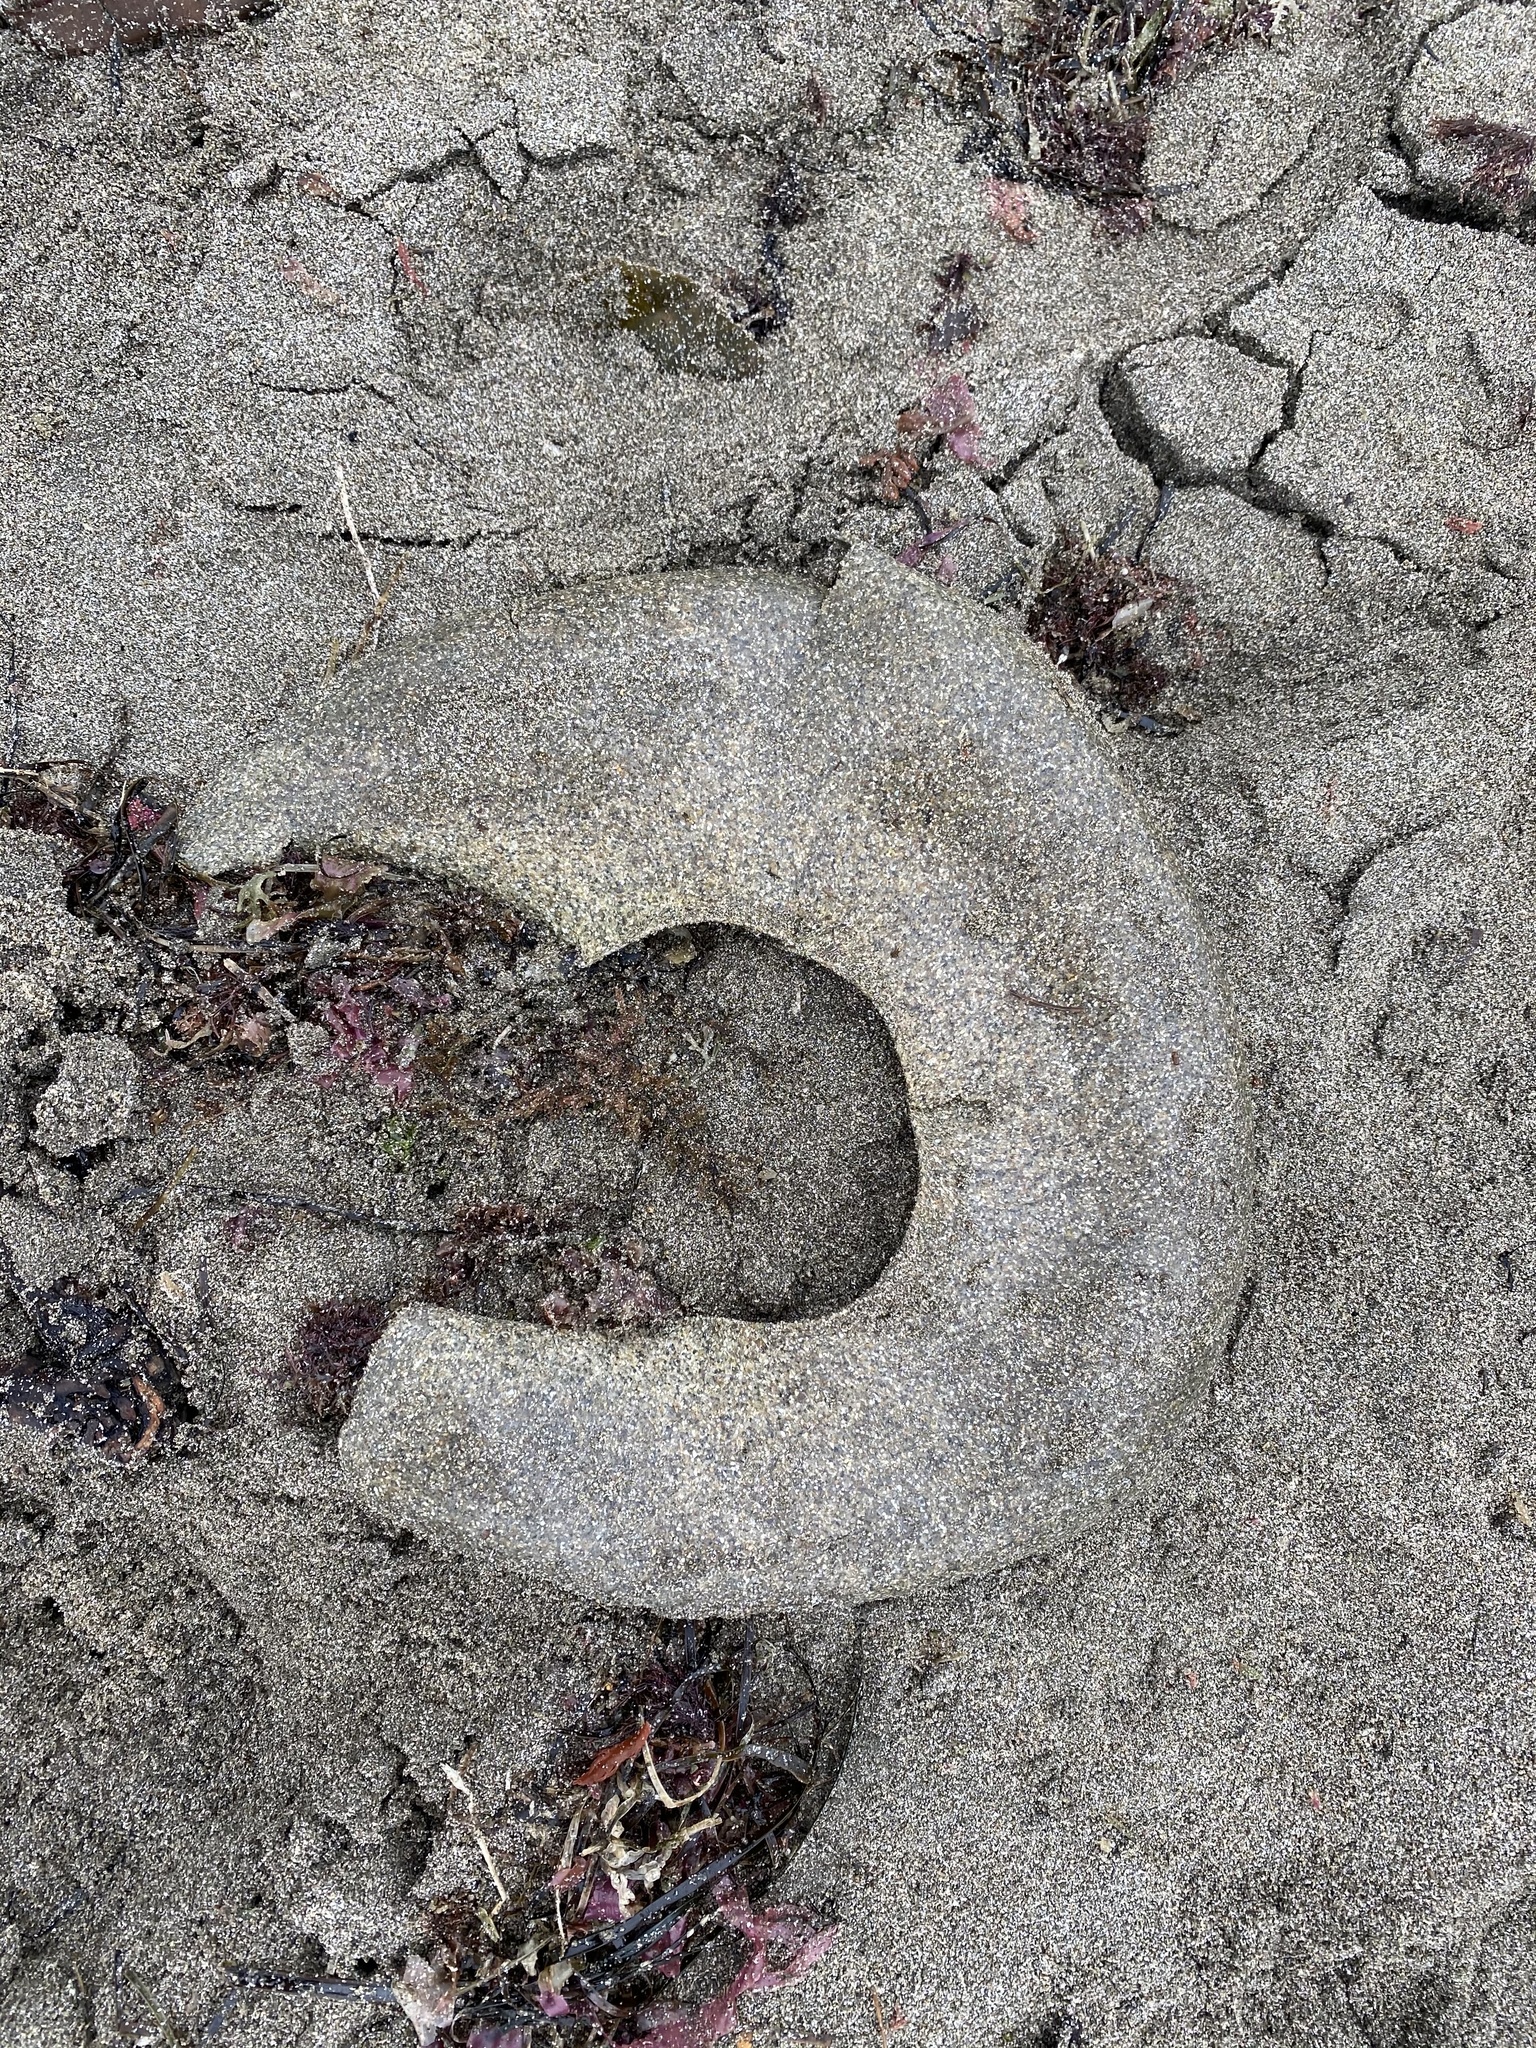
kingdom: Animalia
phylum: Mollusca
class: Gastropoda
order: Littorinimorpha
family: Naticidae
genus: Neverita
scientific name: Neverita lewisii
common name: Lewis' moonsnail
